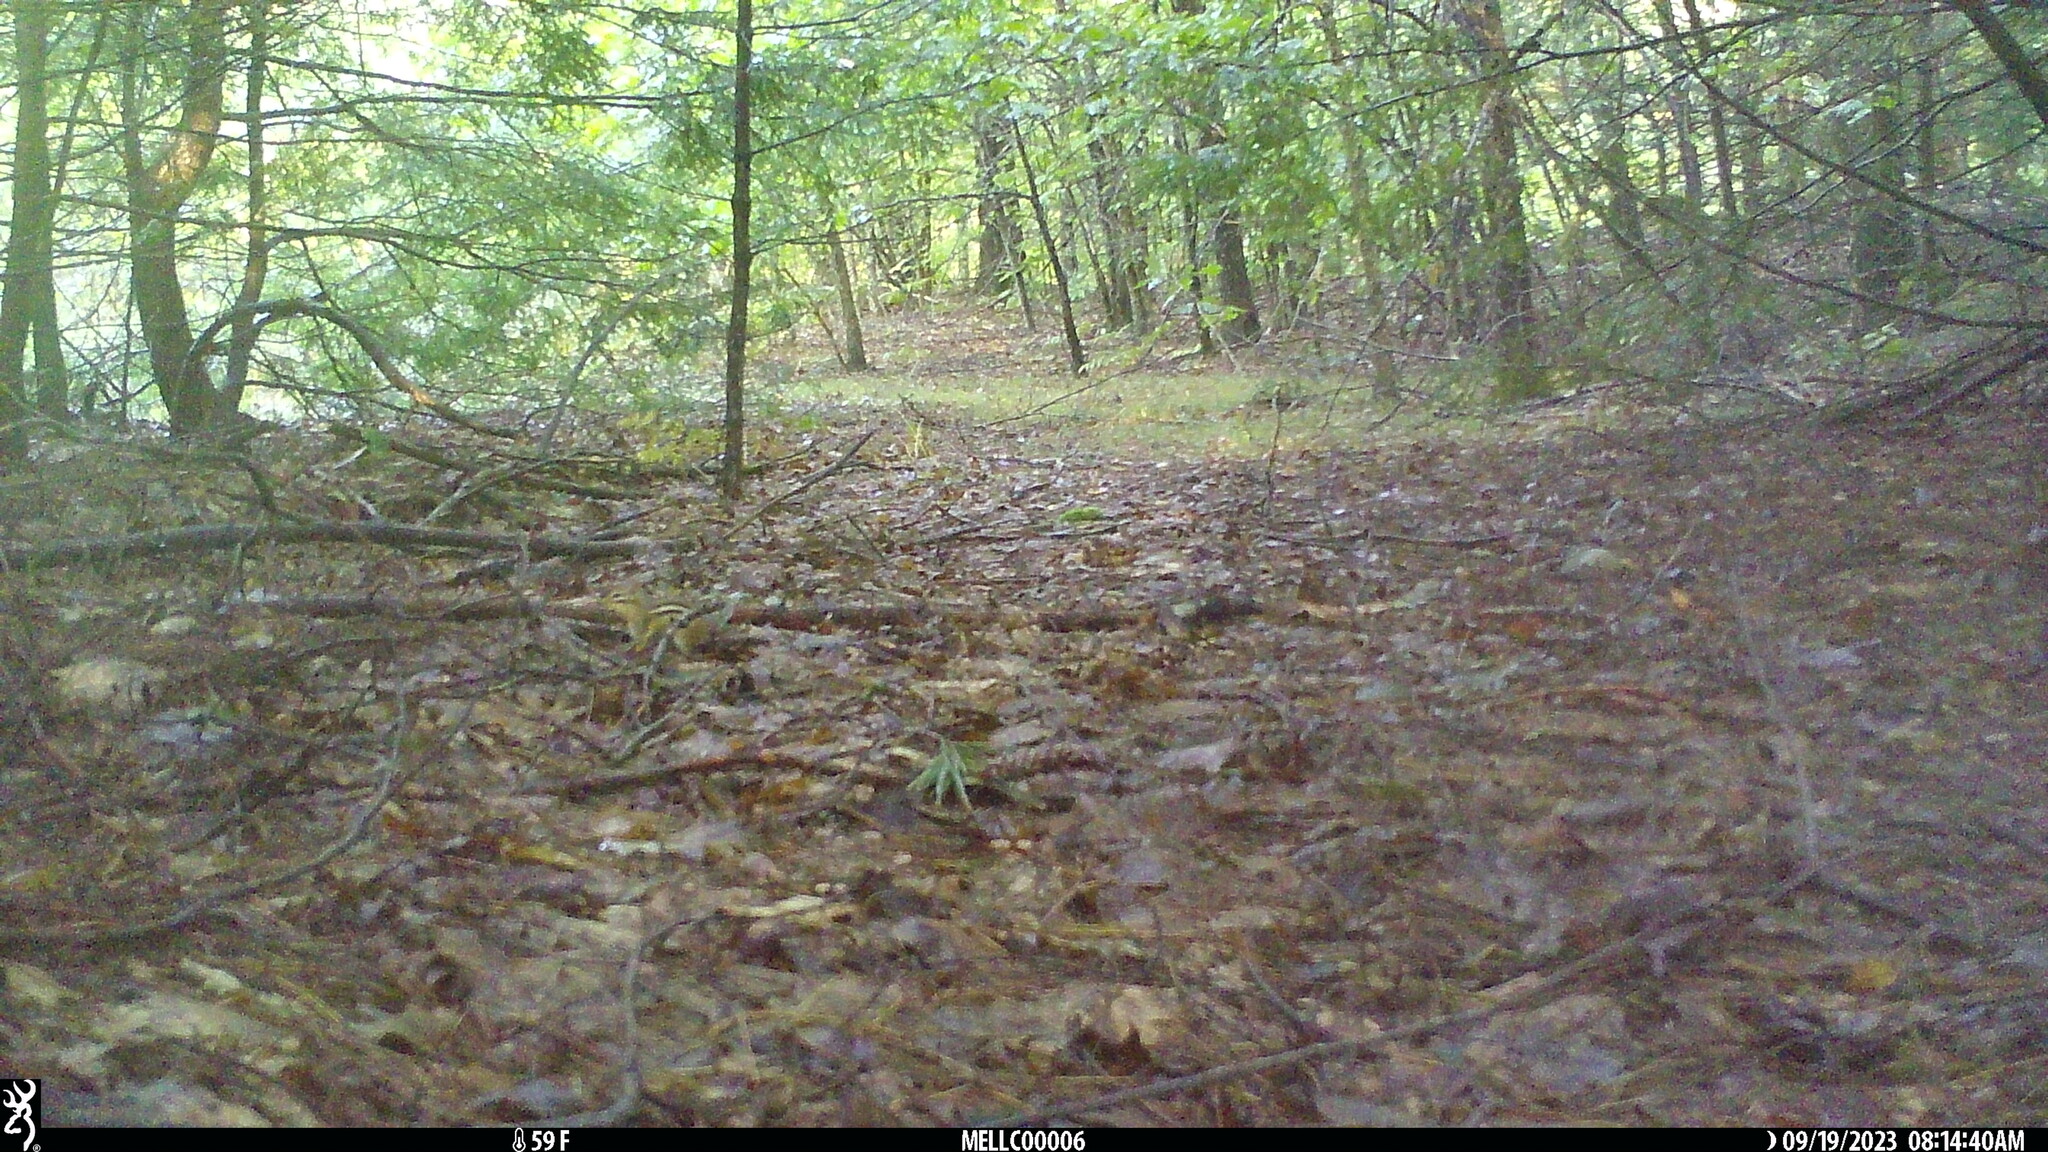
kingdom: Animalia
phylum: Chordata
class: Mammalia
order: Rodentia
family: Sciuridae
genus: Tamias
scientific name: Tamias striatus
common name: Eastern chipmunk
